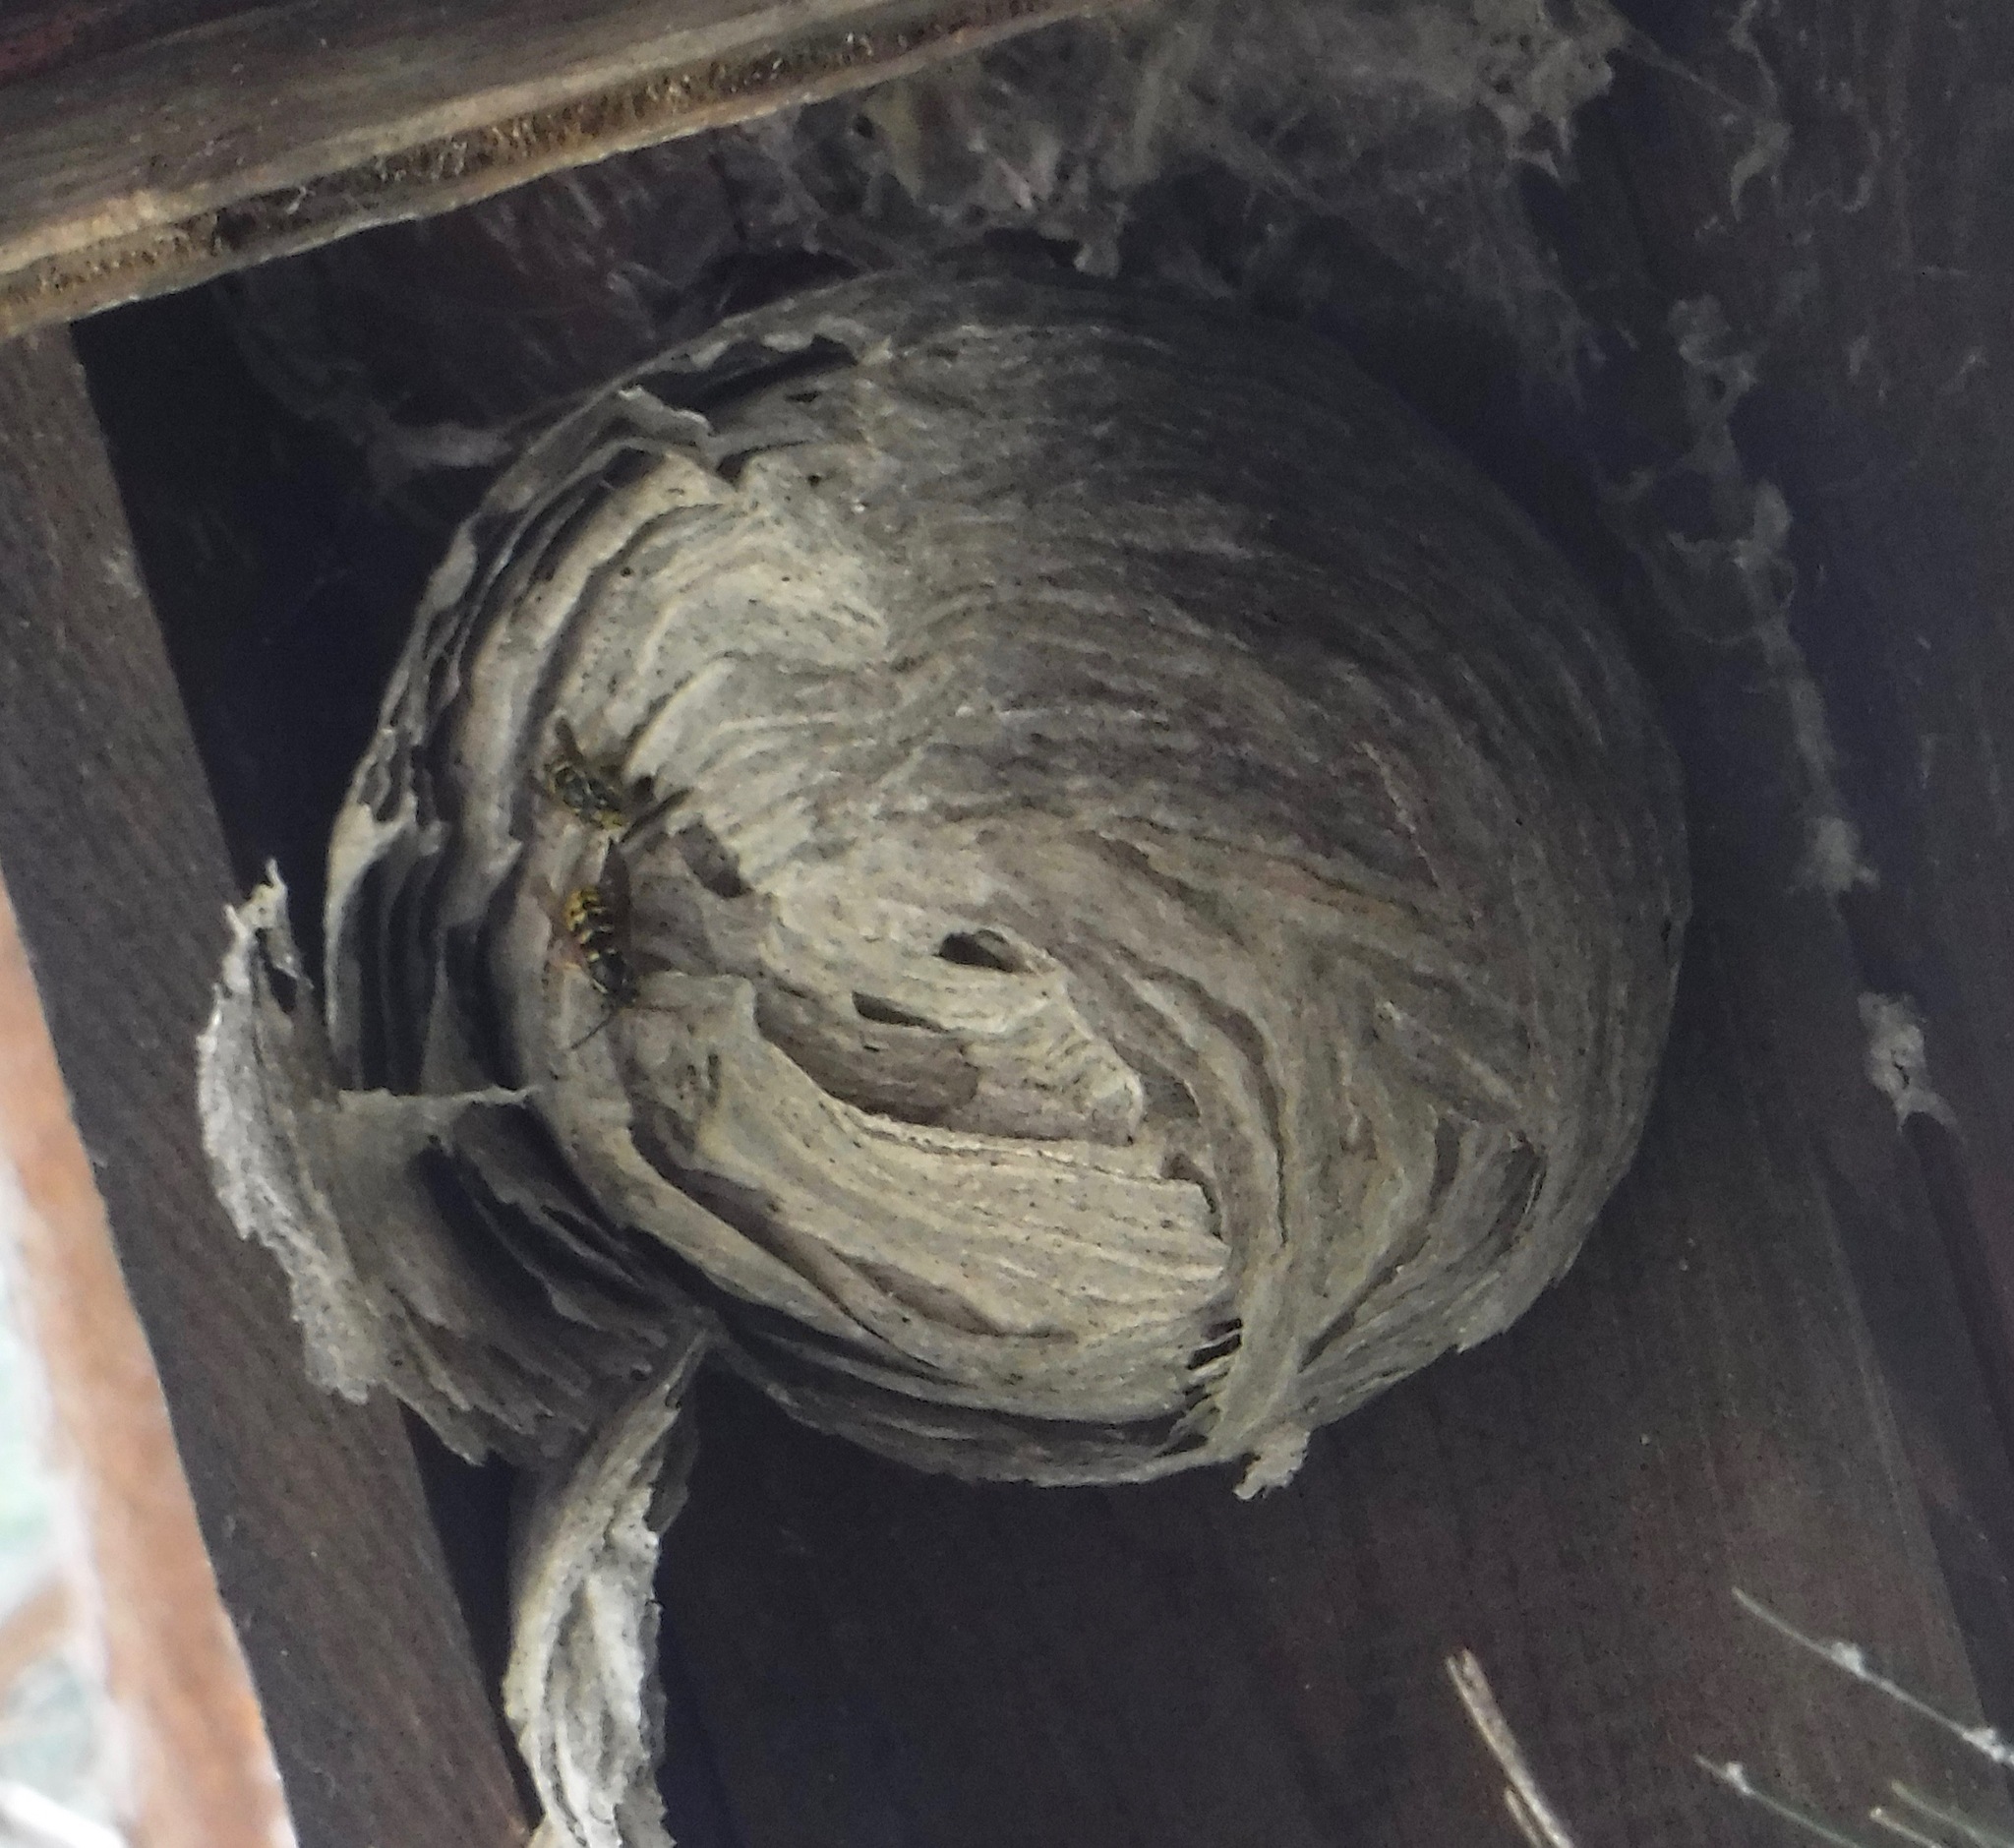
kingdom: Animalia
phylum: Arthropoda
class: Insecta
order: Hymenoptera
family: Vespidae
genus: Dolichovespula
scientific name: Dolichovespula arenaria
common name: Aerial yellowjacket
